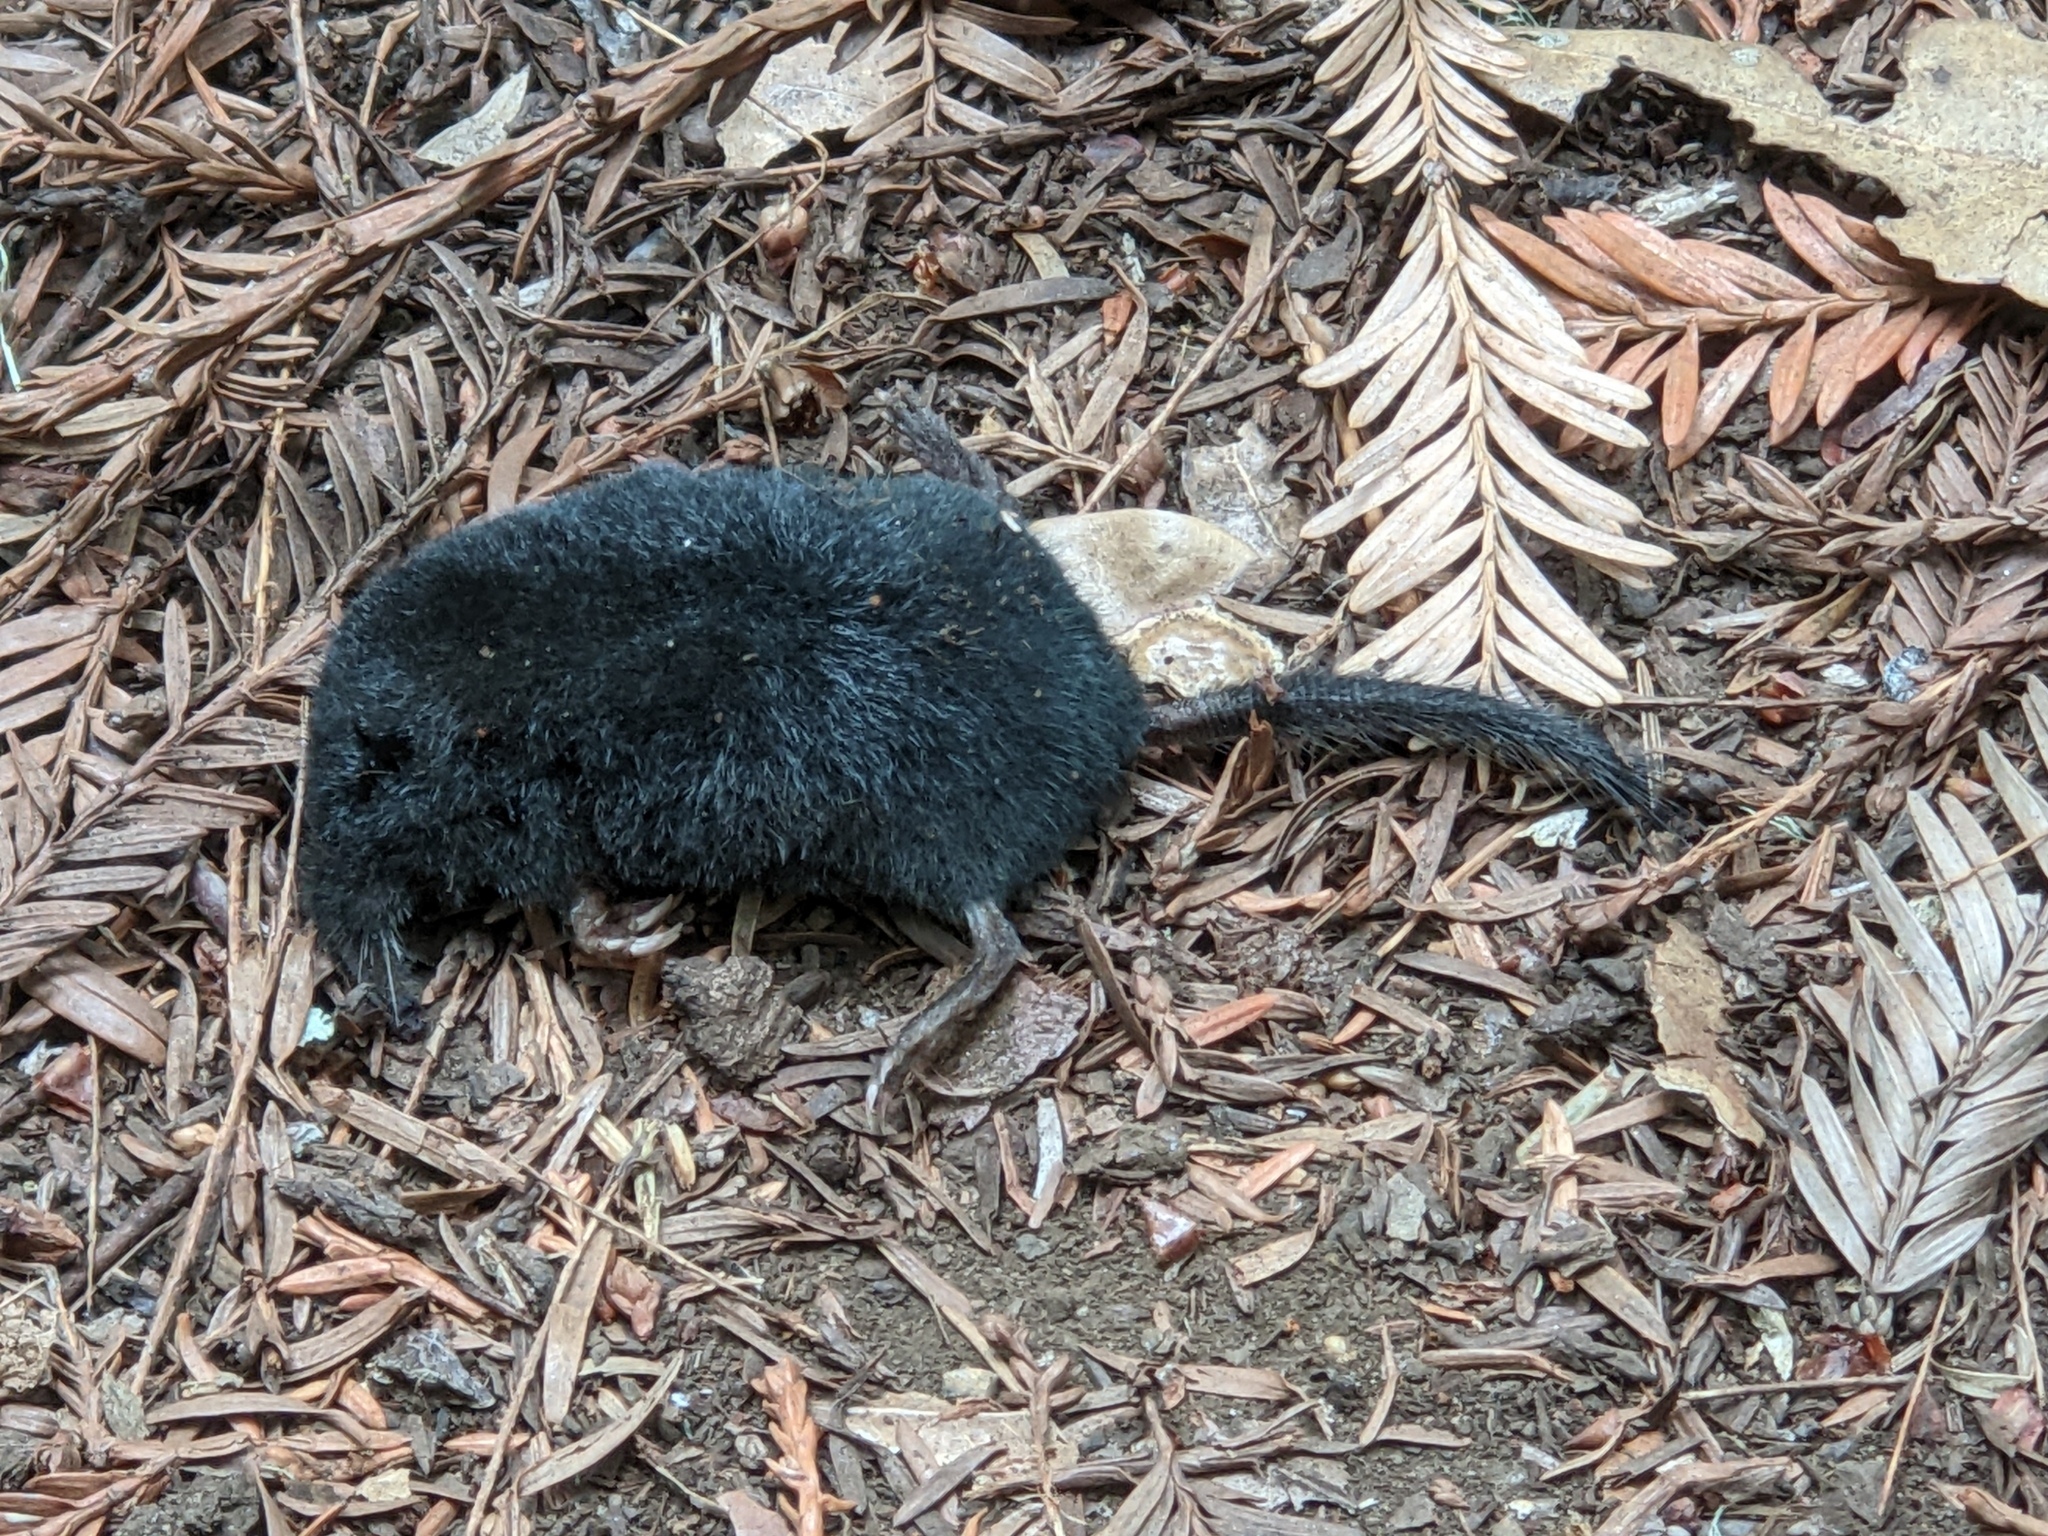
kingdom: Animalia
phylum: Chordata
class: Mammalia
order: Soricomorpha
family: Talpidae
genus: Neurotrichus
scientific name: Neurotrichus gibbsii
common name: American shrew mole
